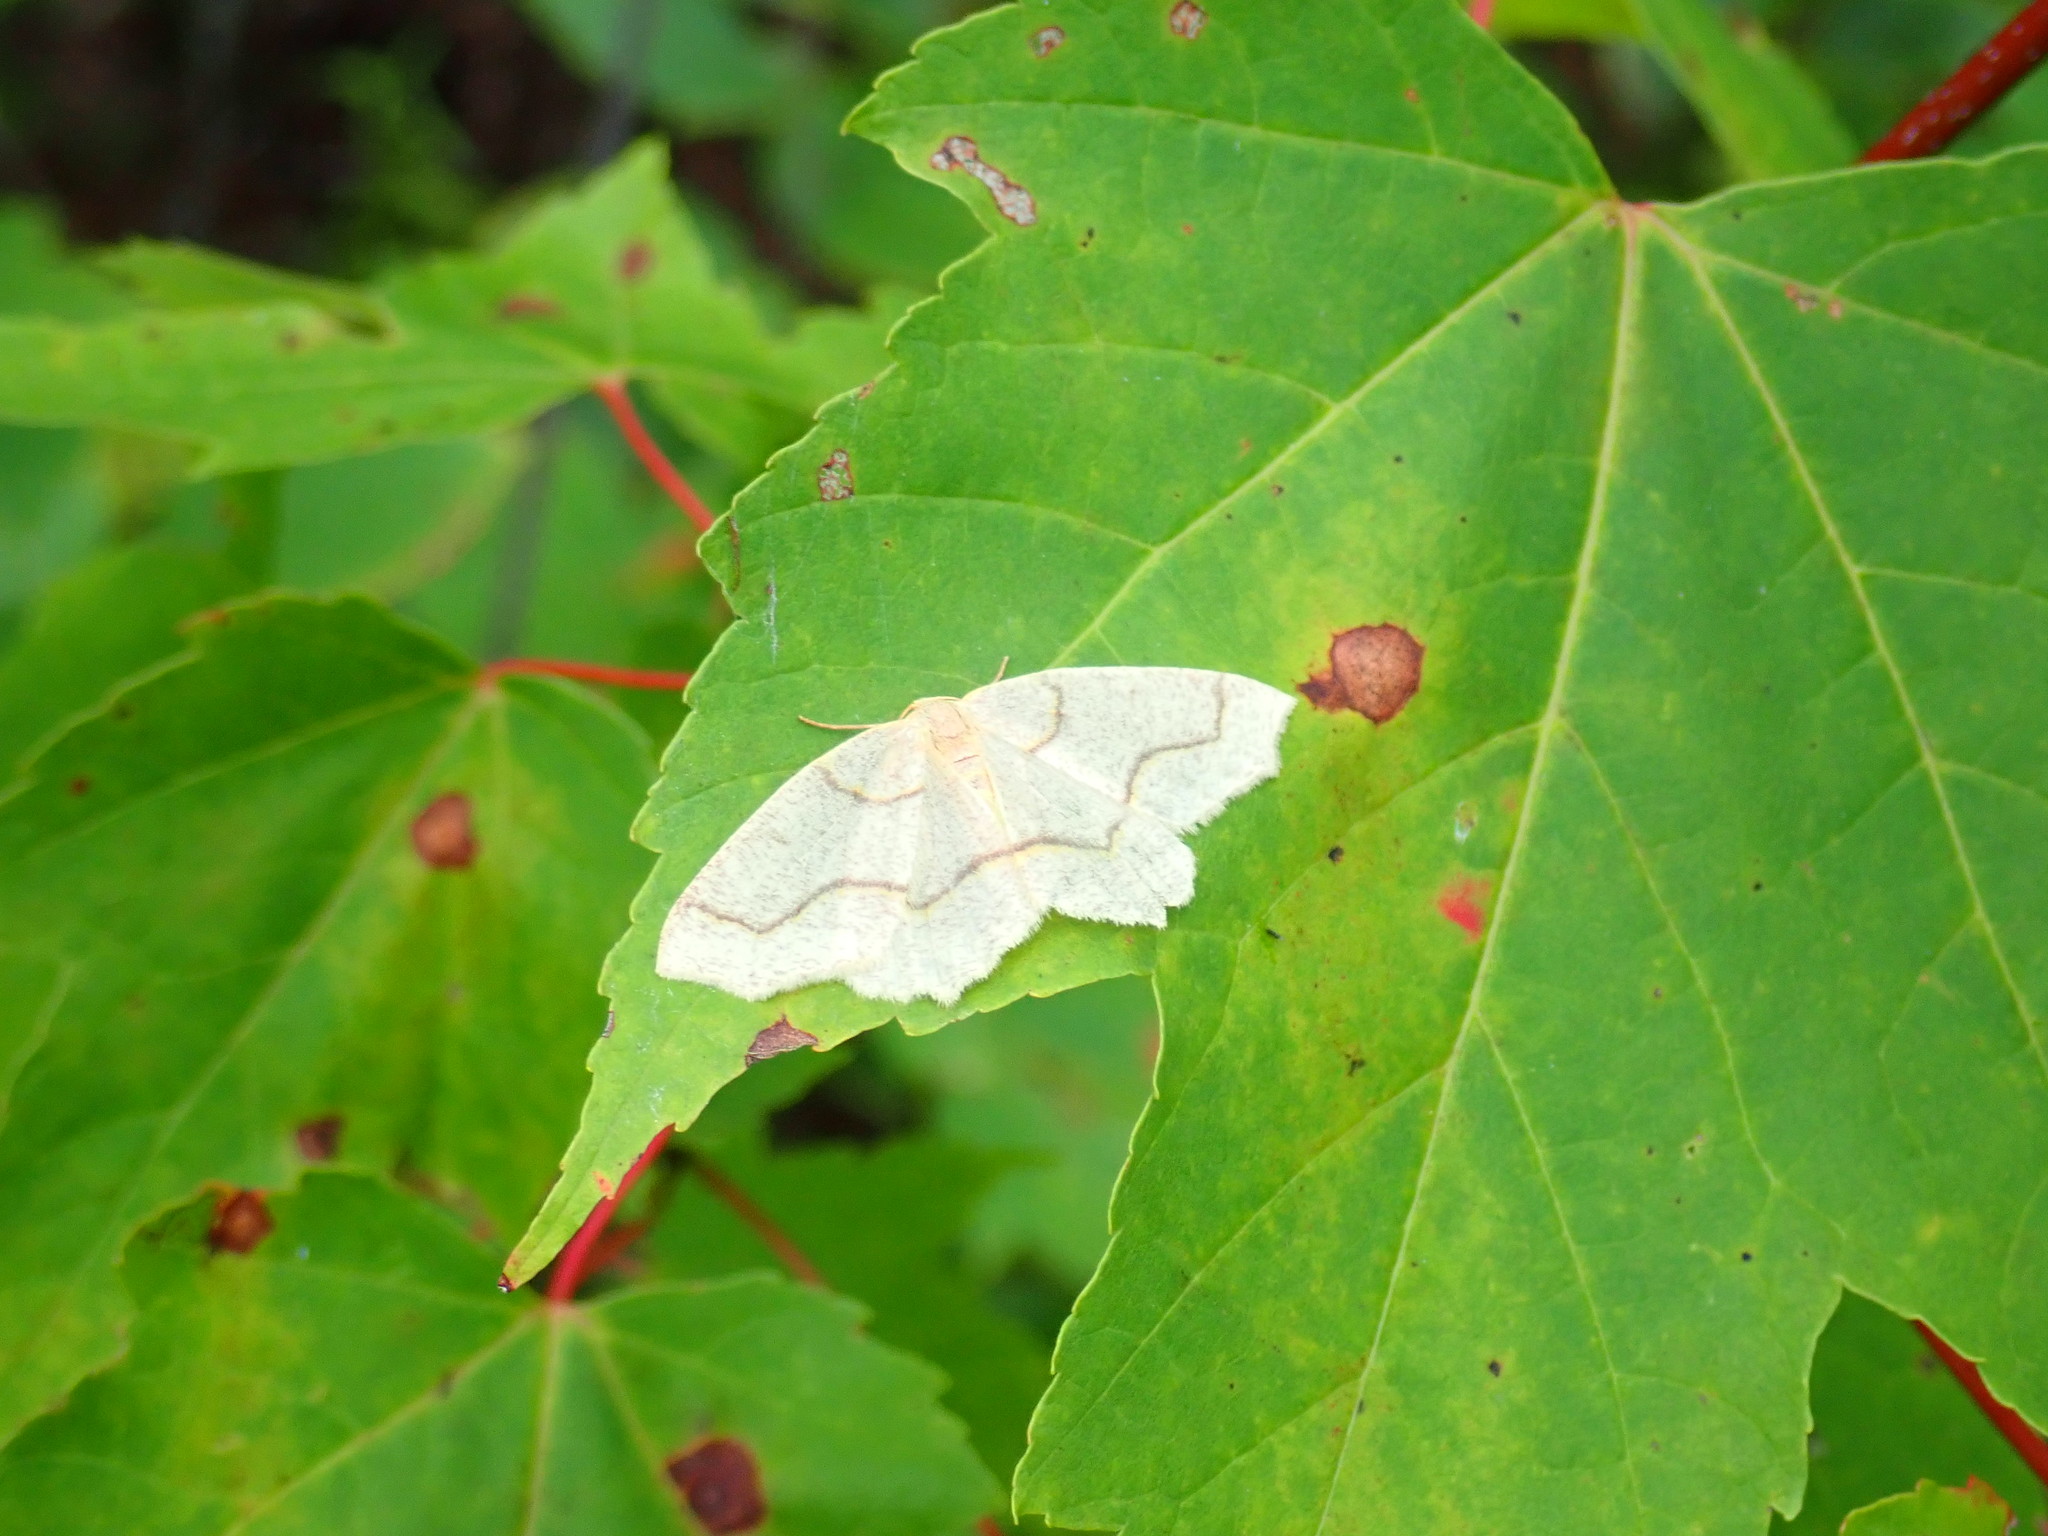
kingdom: Animalia
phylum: Arthropoda
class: Insecta
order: Lepidoptera
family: Geometridae
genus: Lambdina
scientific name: Lambdina fiscellaria
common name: Hemlock looper
